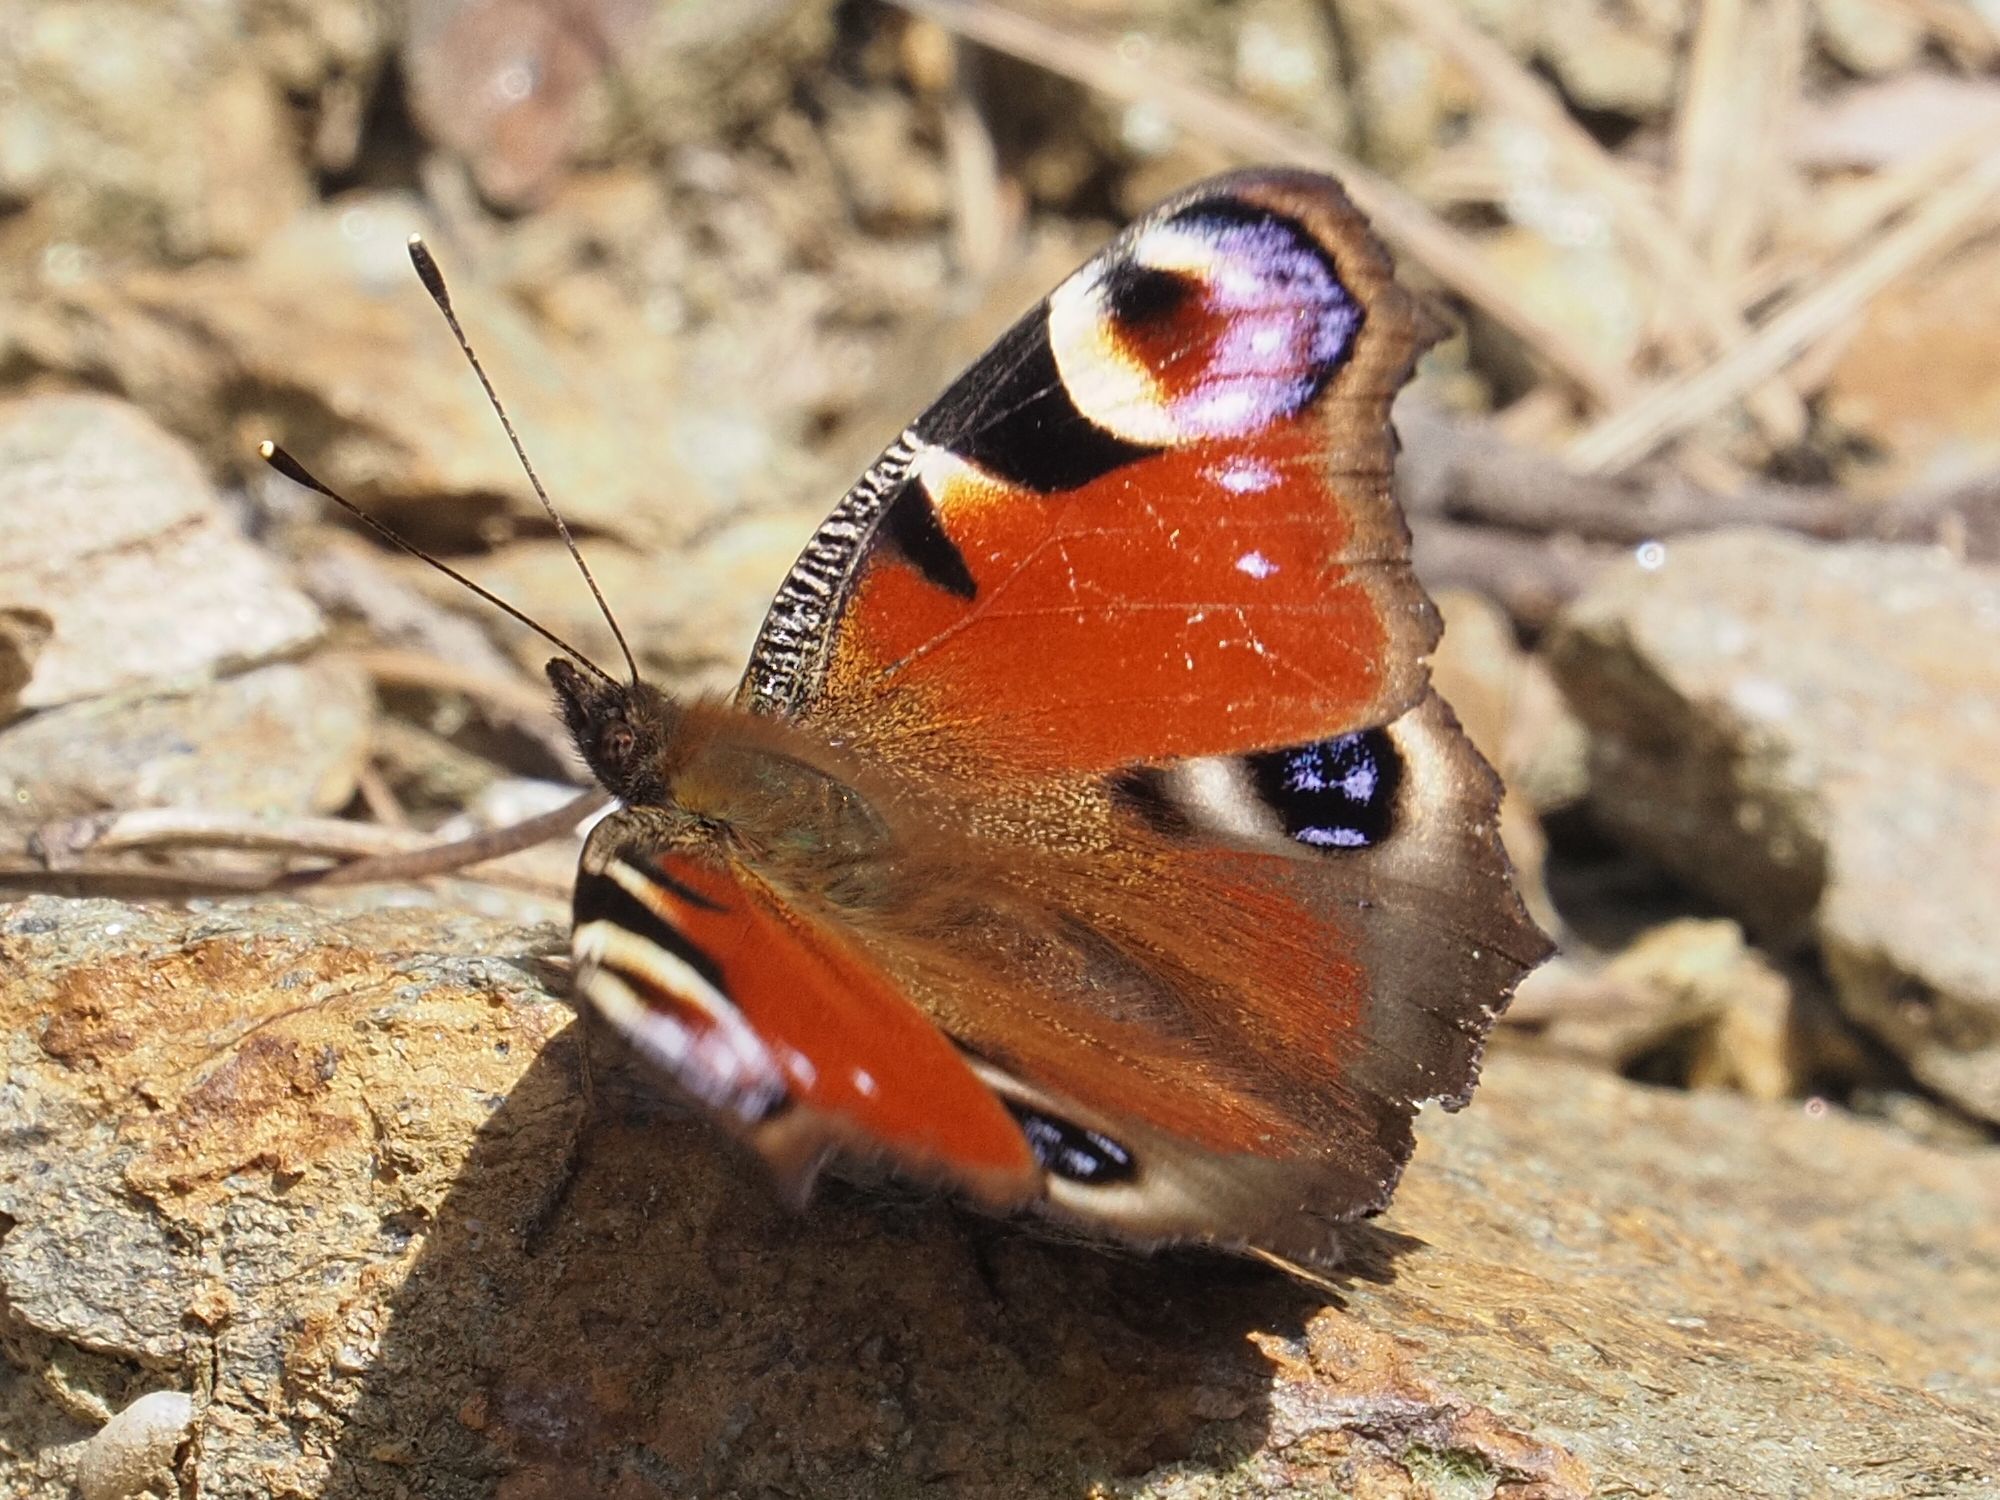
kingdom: Animalia
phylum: Arthropoda
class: Insecta
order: Lepidoptera
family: Nymphalidae
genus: Aglais
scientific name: Aglais io
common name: Peacock
